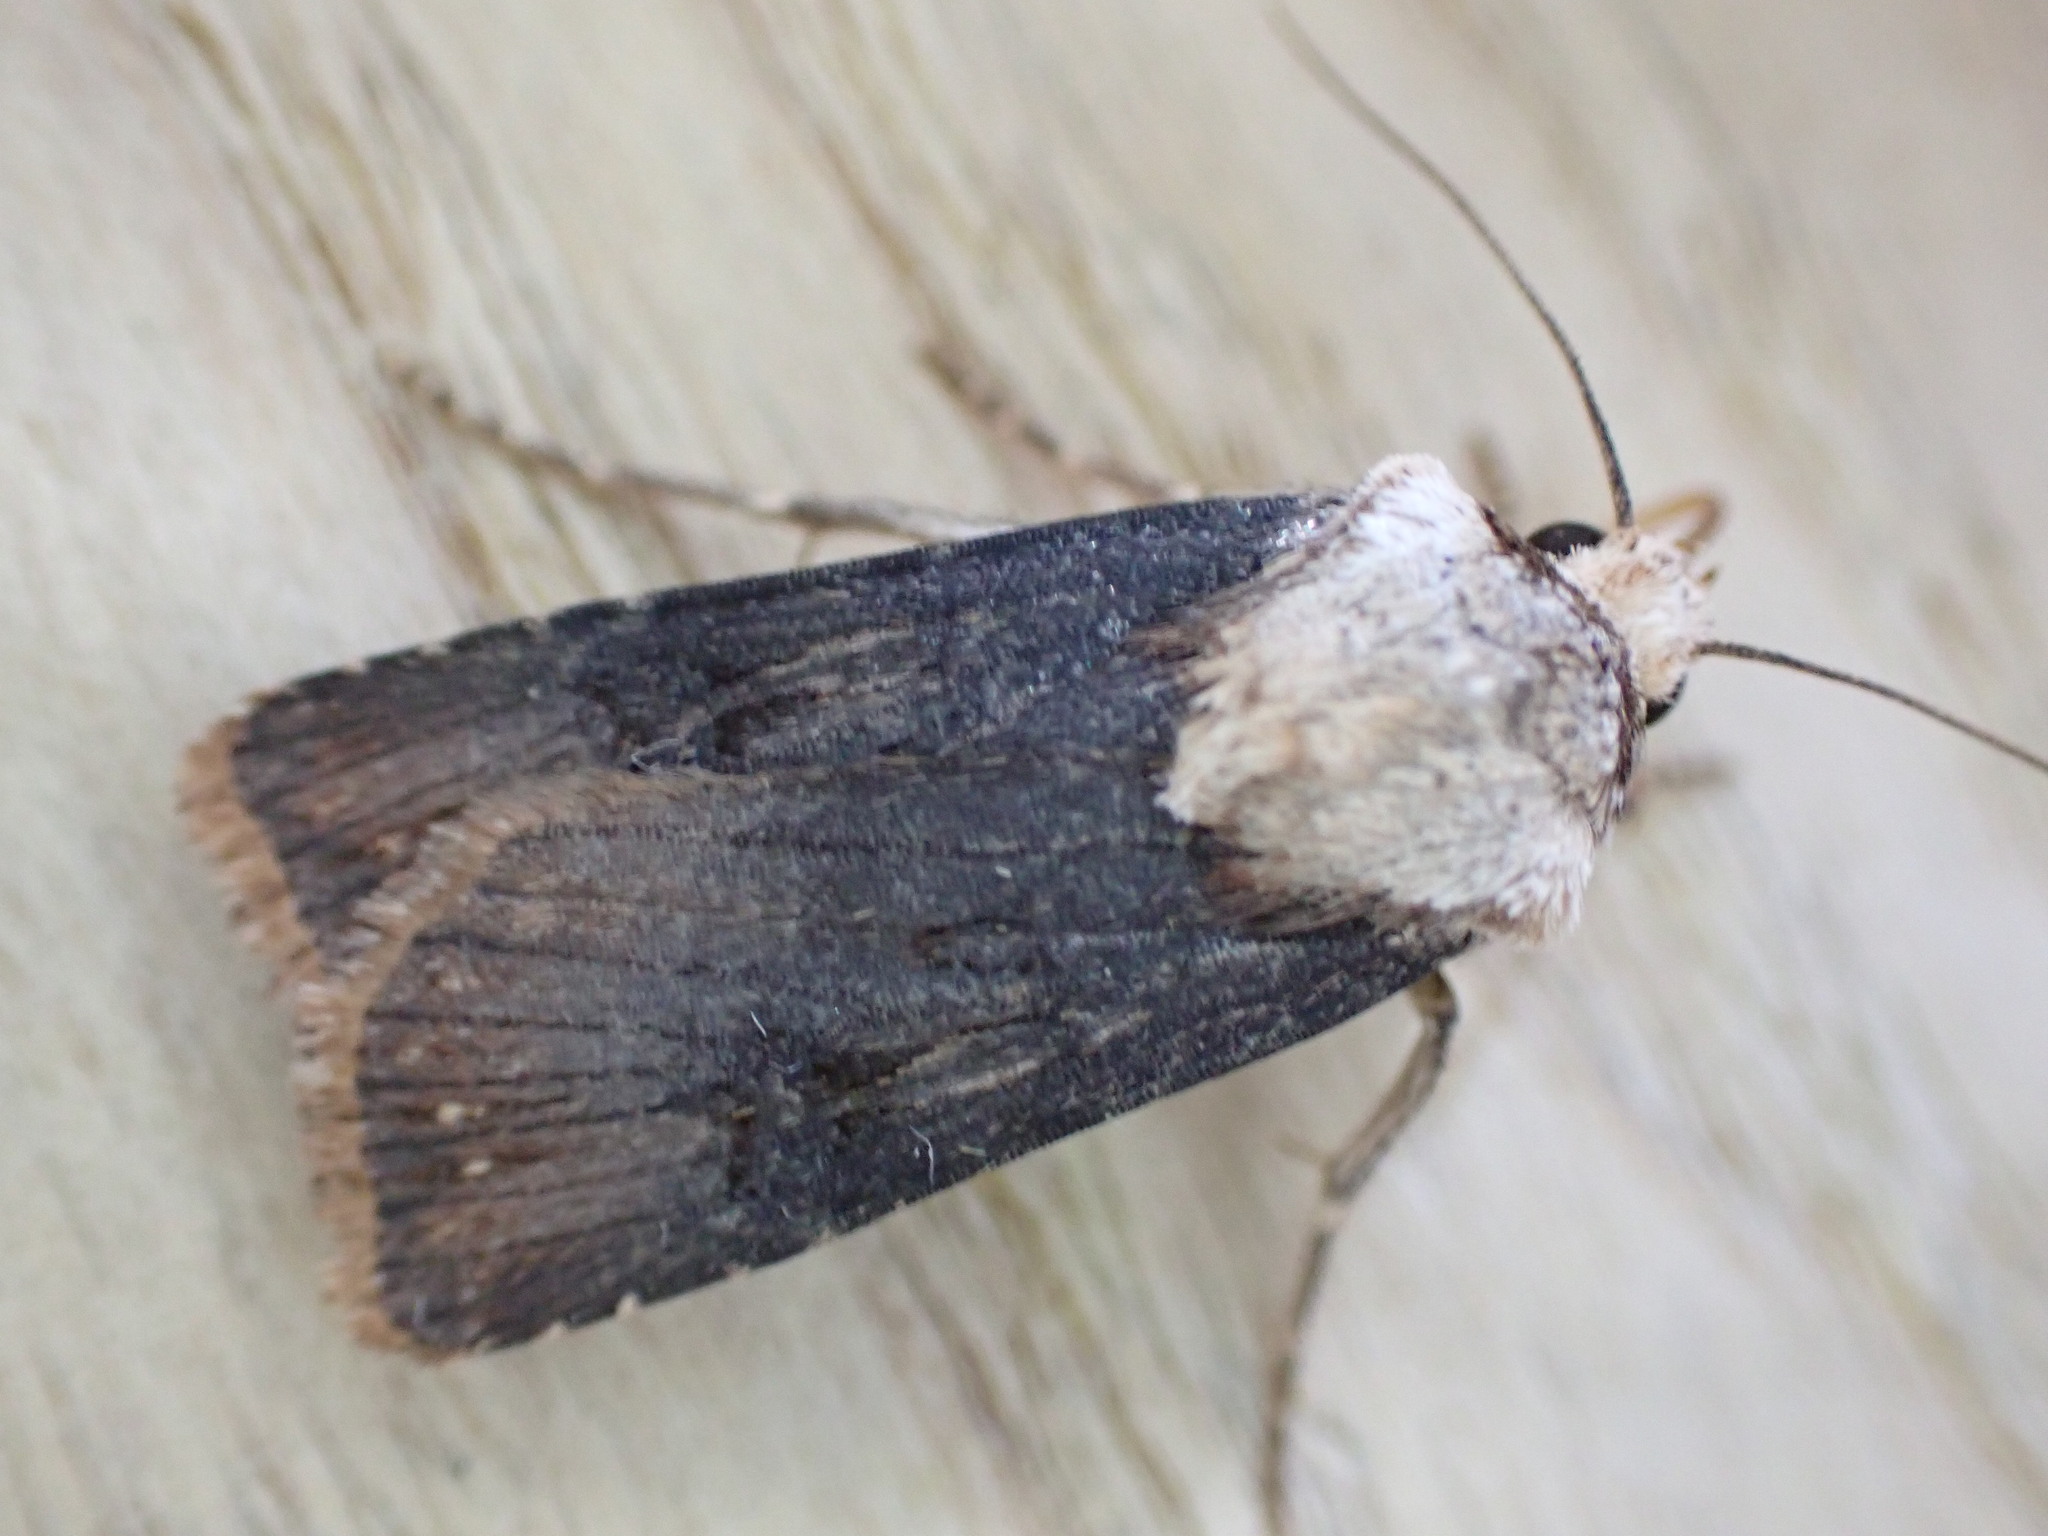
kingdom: Animalia
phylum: Arthropoda
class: Insecta
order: Lepidoptera
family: Noctuidae
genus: Agrotis
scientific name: Agrotis puta
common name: Shuttle-shaped dart
